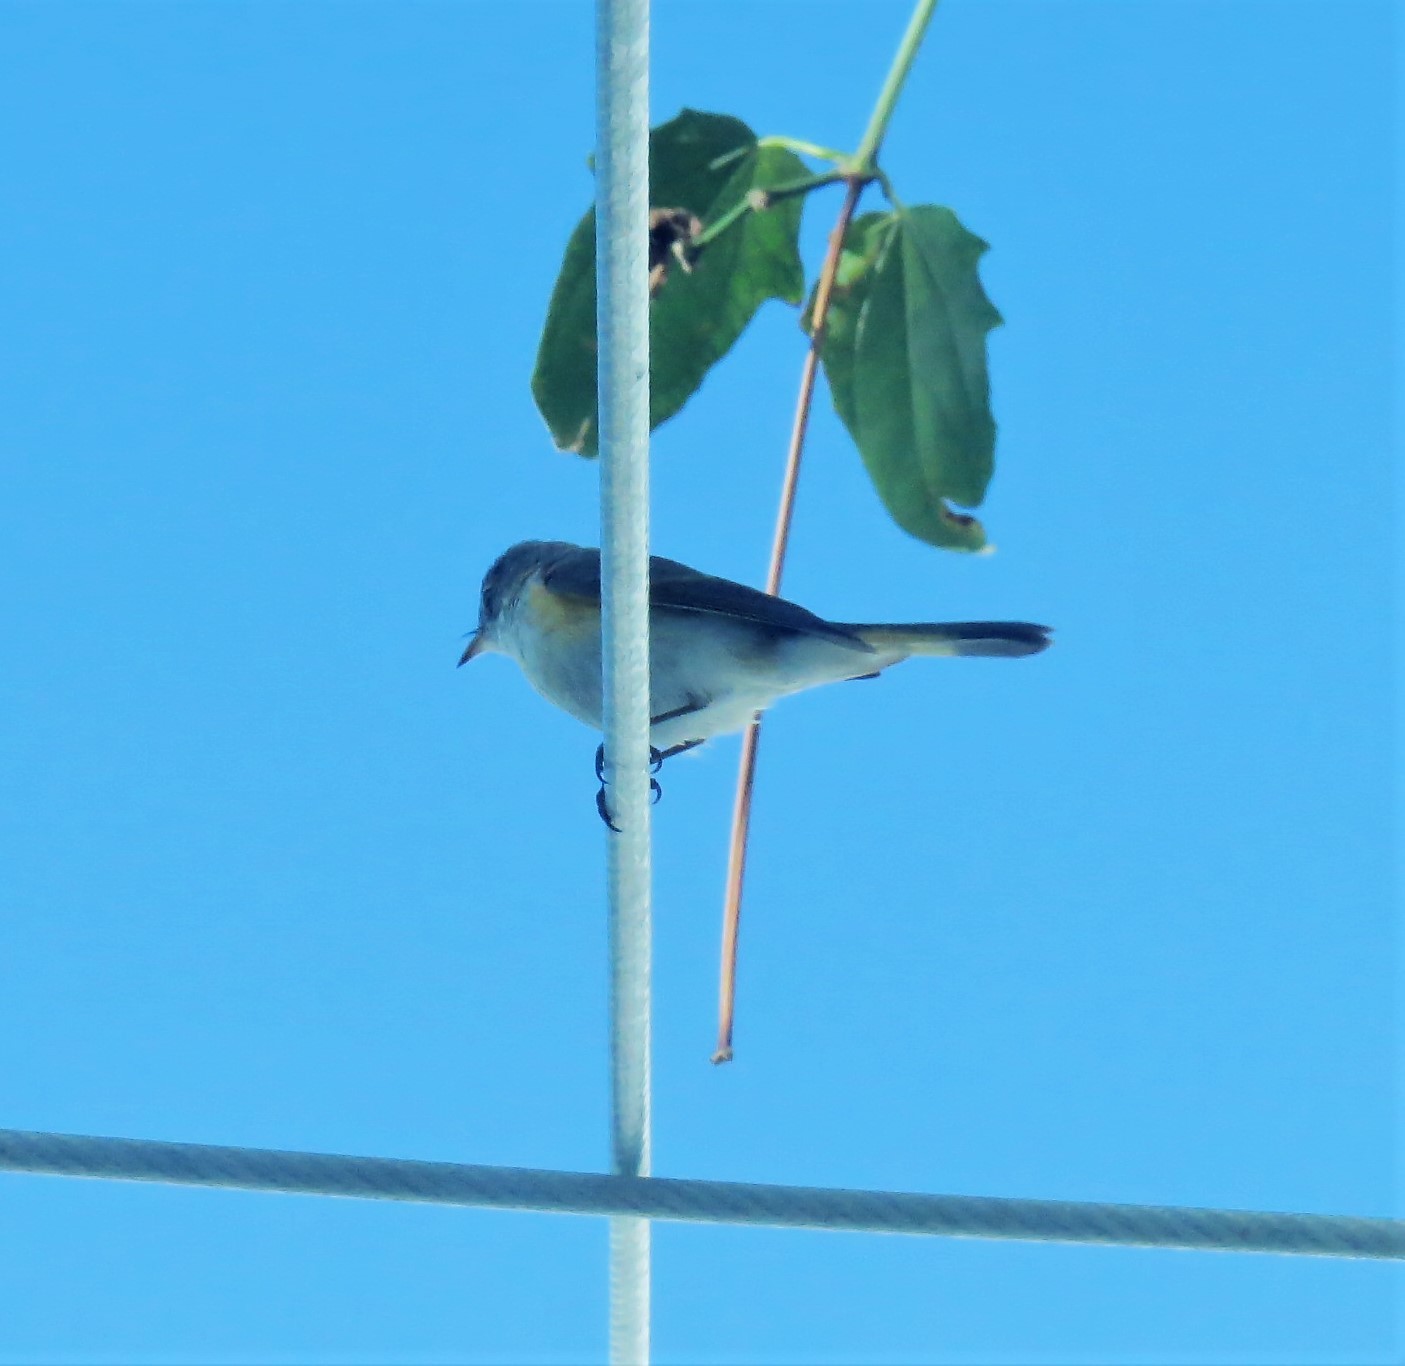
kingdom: Animalia
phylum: Chordata
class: Aves
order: Passeriformes
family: Parulidae
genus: Setophaga
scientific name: Setophaga ruticilla
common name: American redstart
